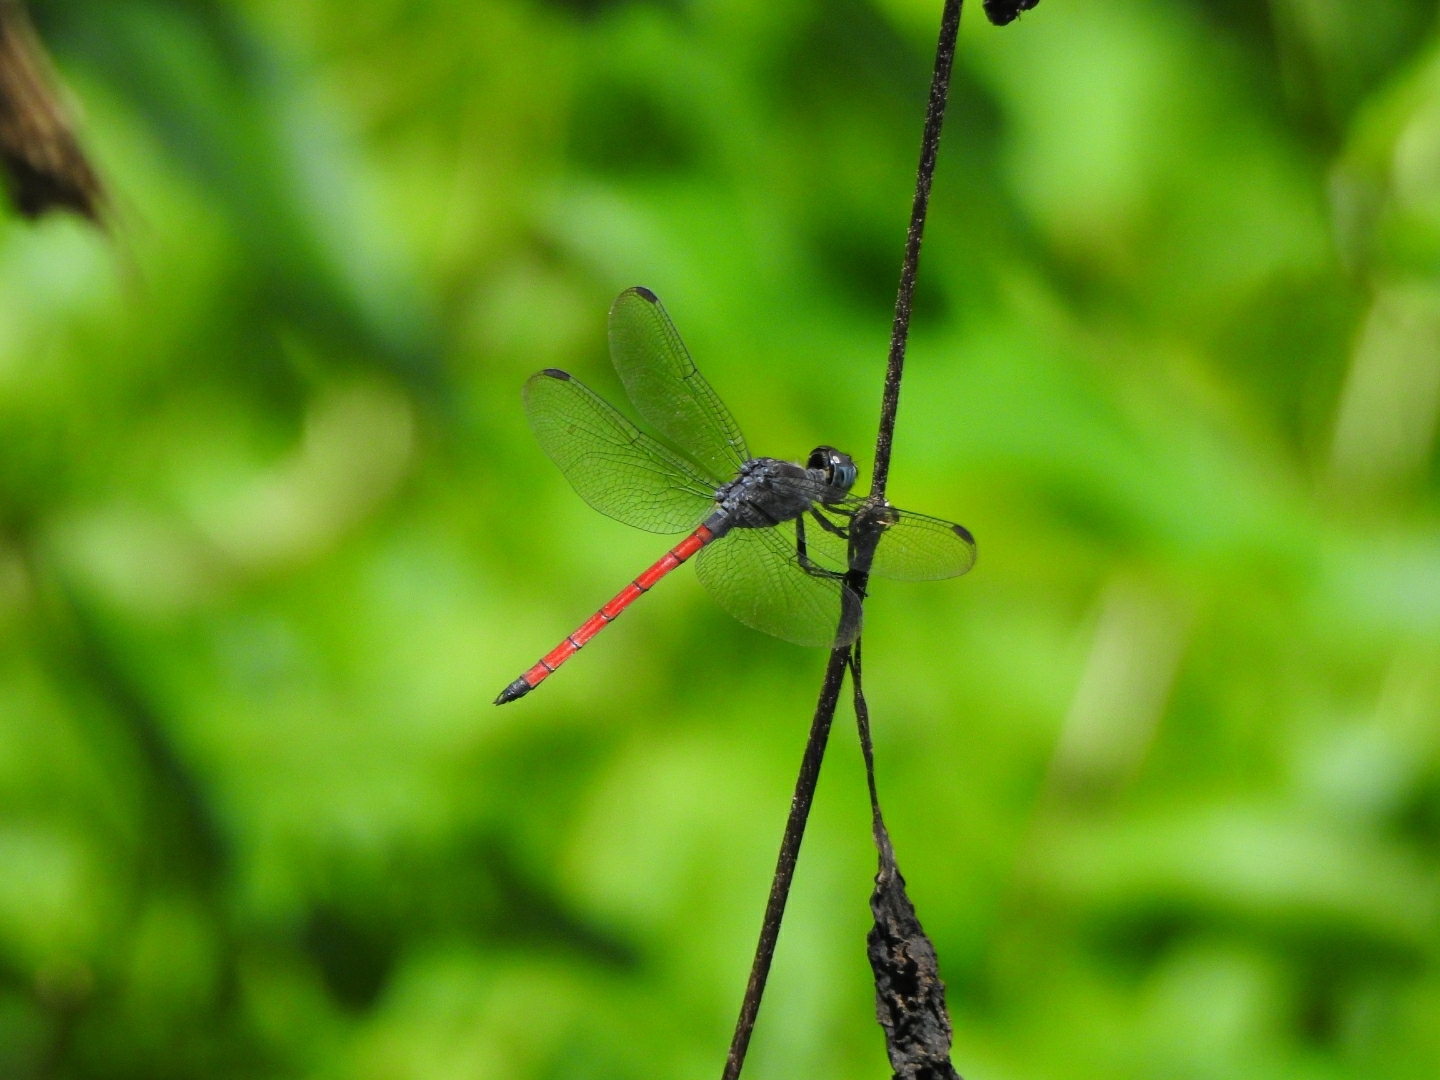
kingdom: Animalia
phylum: Arthropoda
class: Insecta
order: Odonata
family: Libellulidae
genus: Lathrecista
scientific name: Lathrecista asiatica
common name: Scarlet grenadier
